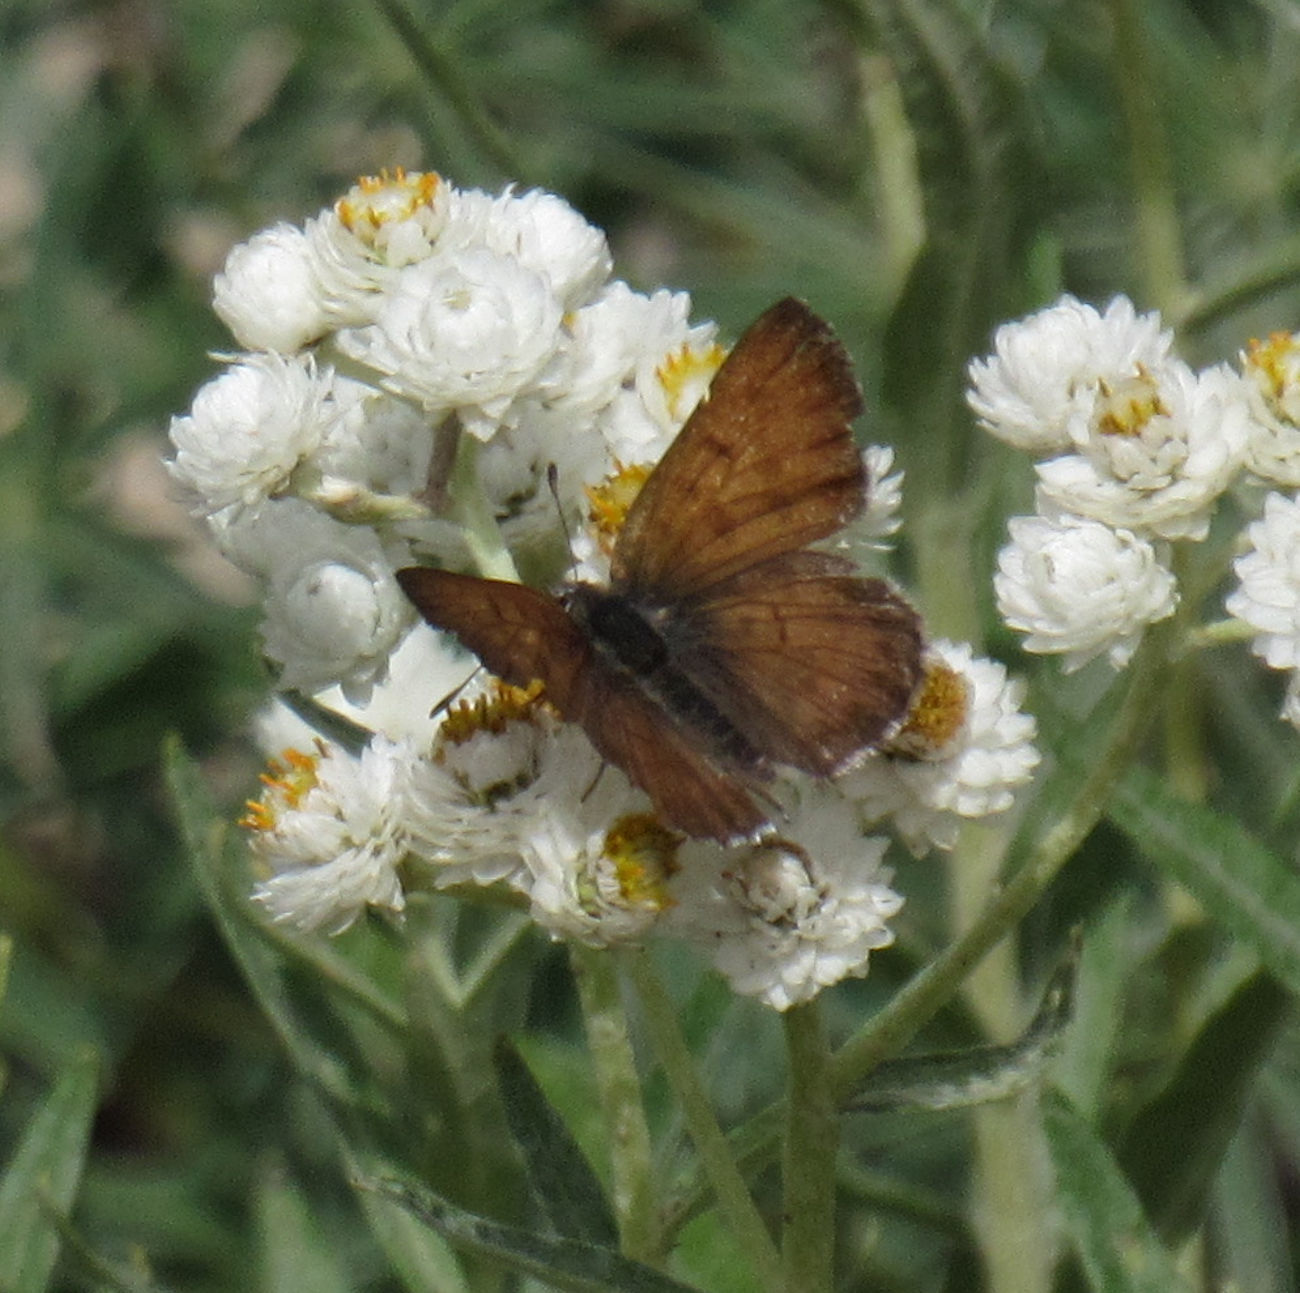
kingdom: Animalia
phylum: Arthropoda
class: Insecta
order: Lepidoptera
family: Lycaenidae
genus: Tharsalea
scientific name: Tharsalea mariposa
